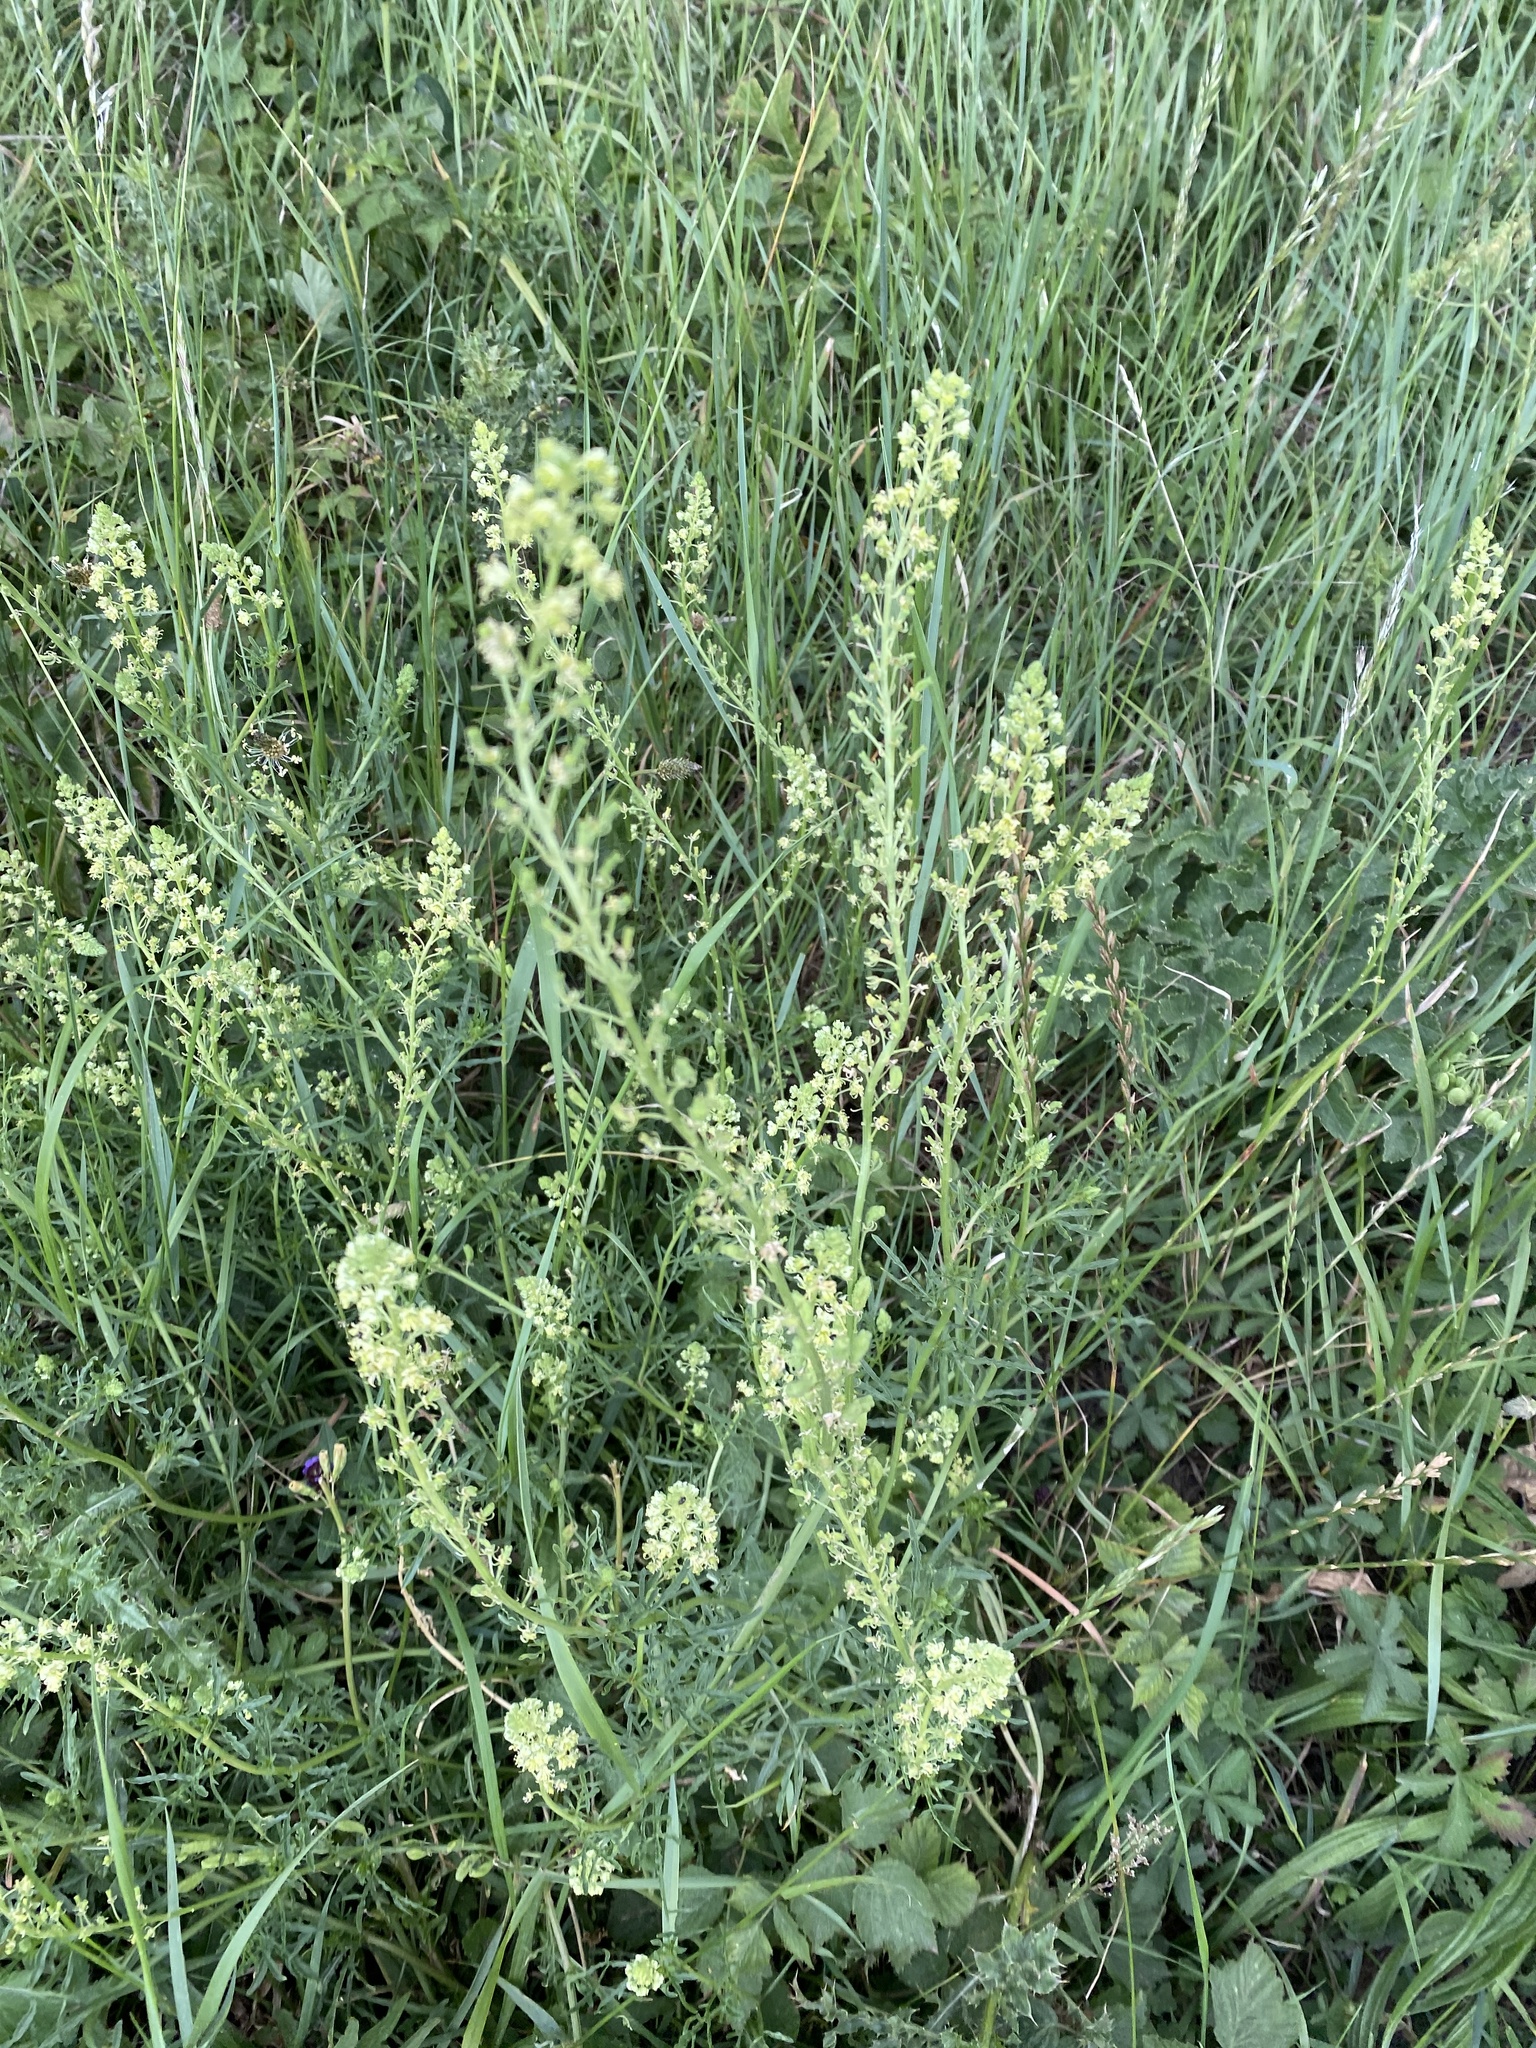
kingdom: Plantae
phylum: Tracheophyta
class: Magnoliopsida
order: Brassicales
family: Resedaceae
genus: Reseda
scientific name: Reseda lutea
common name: Wild mignonette
